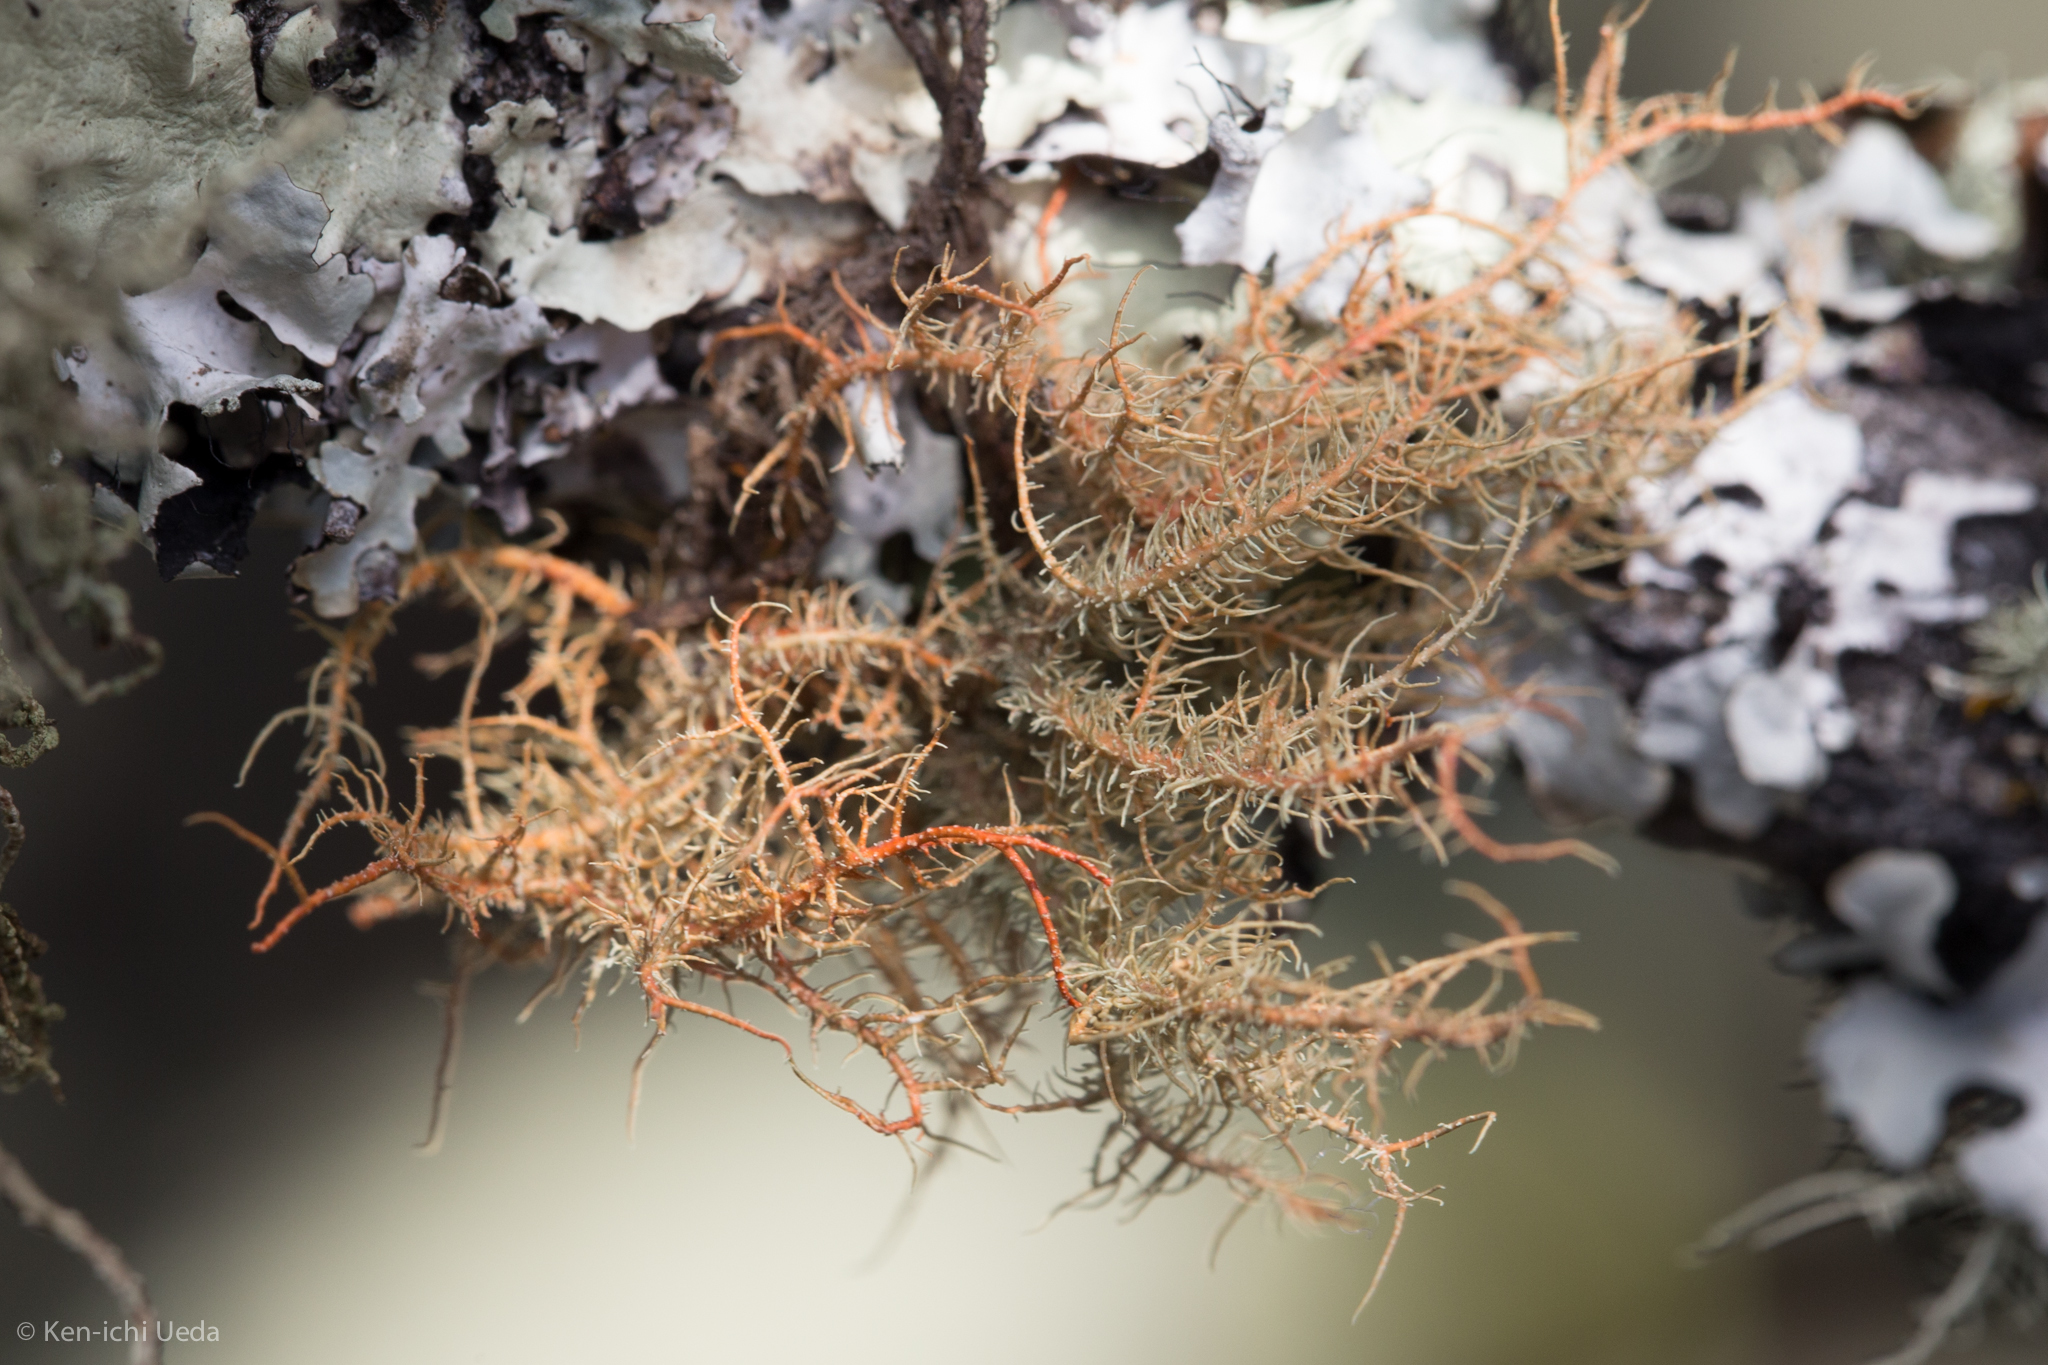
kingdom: Fungi
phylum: Ascomycota
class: Lecanoromycetes
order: Lecanorales
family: Parmeliaceae
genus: Usnea
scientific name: Usnea rubicunda
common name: Red beard lichen
